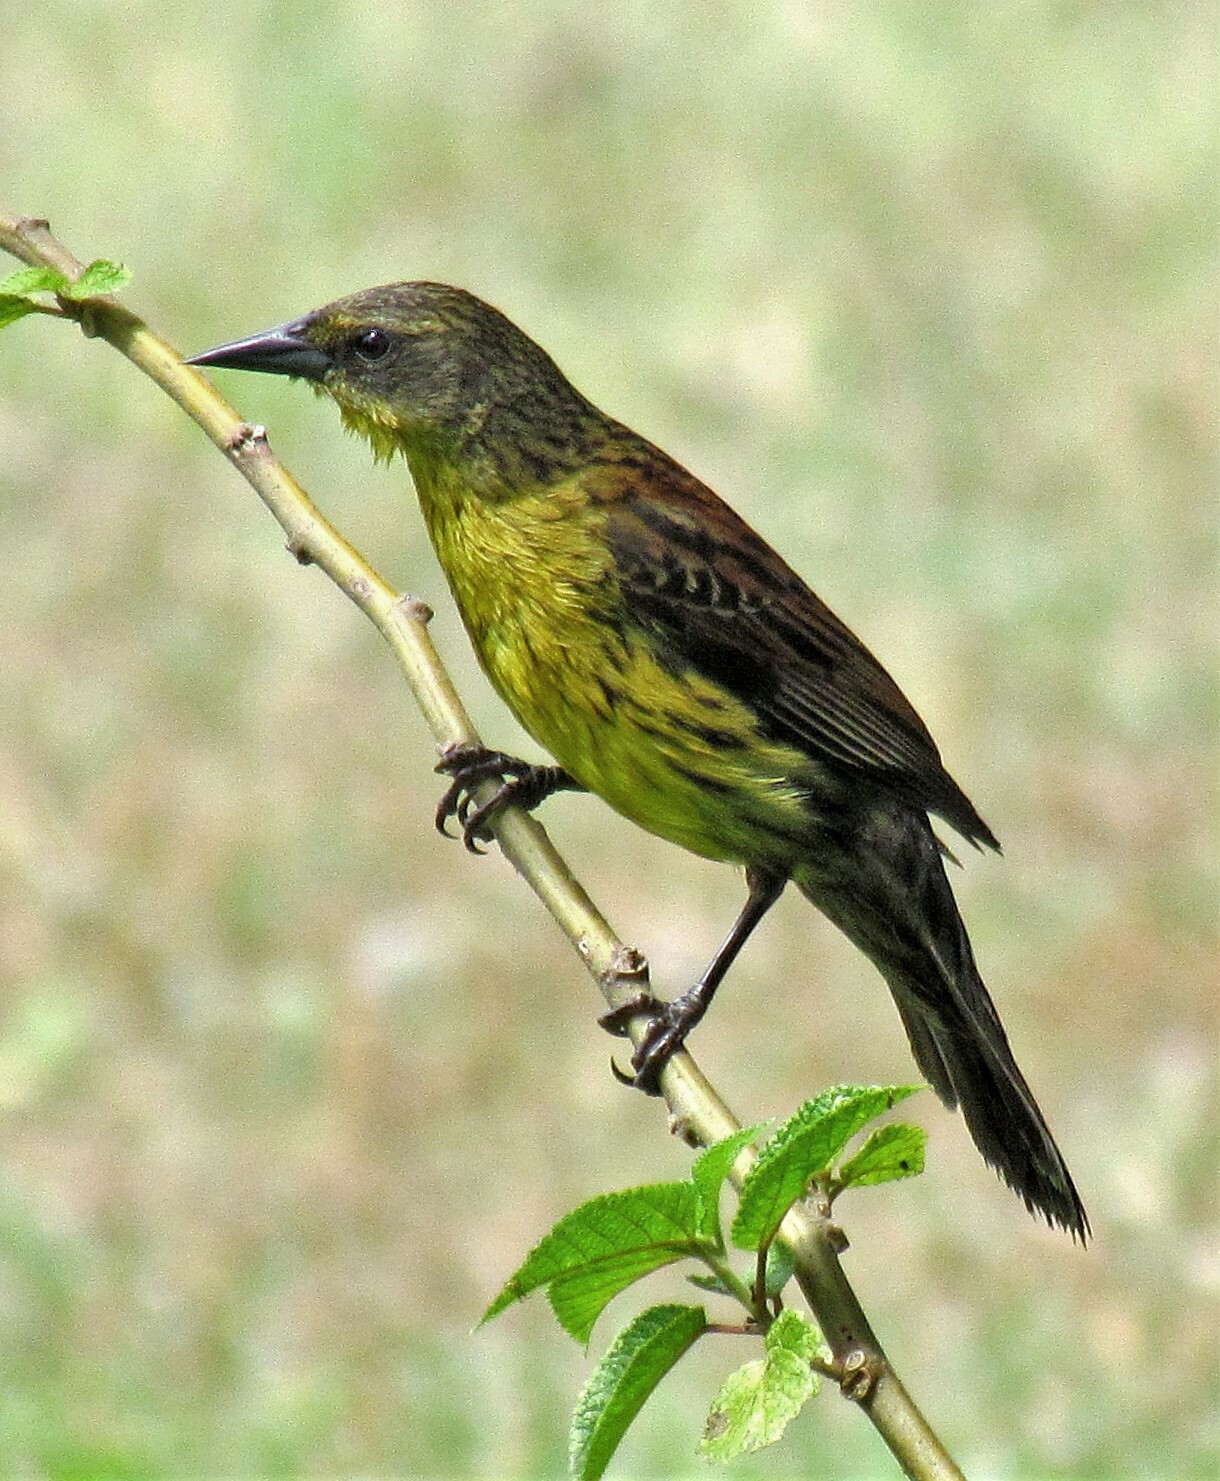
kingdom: Animalia
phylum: Chordata
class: Aves
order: Passeriformes
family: Icteridae
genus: Agelasticus
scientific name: Agelasticus cyanopus
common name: Unicolored blackbird
